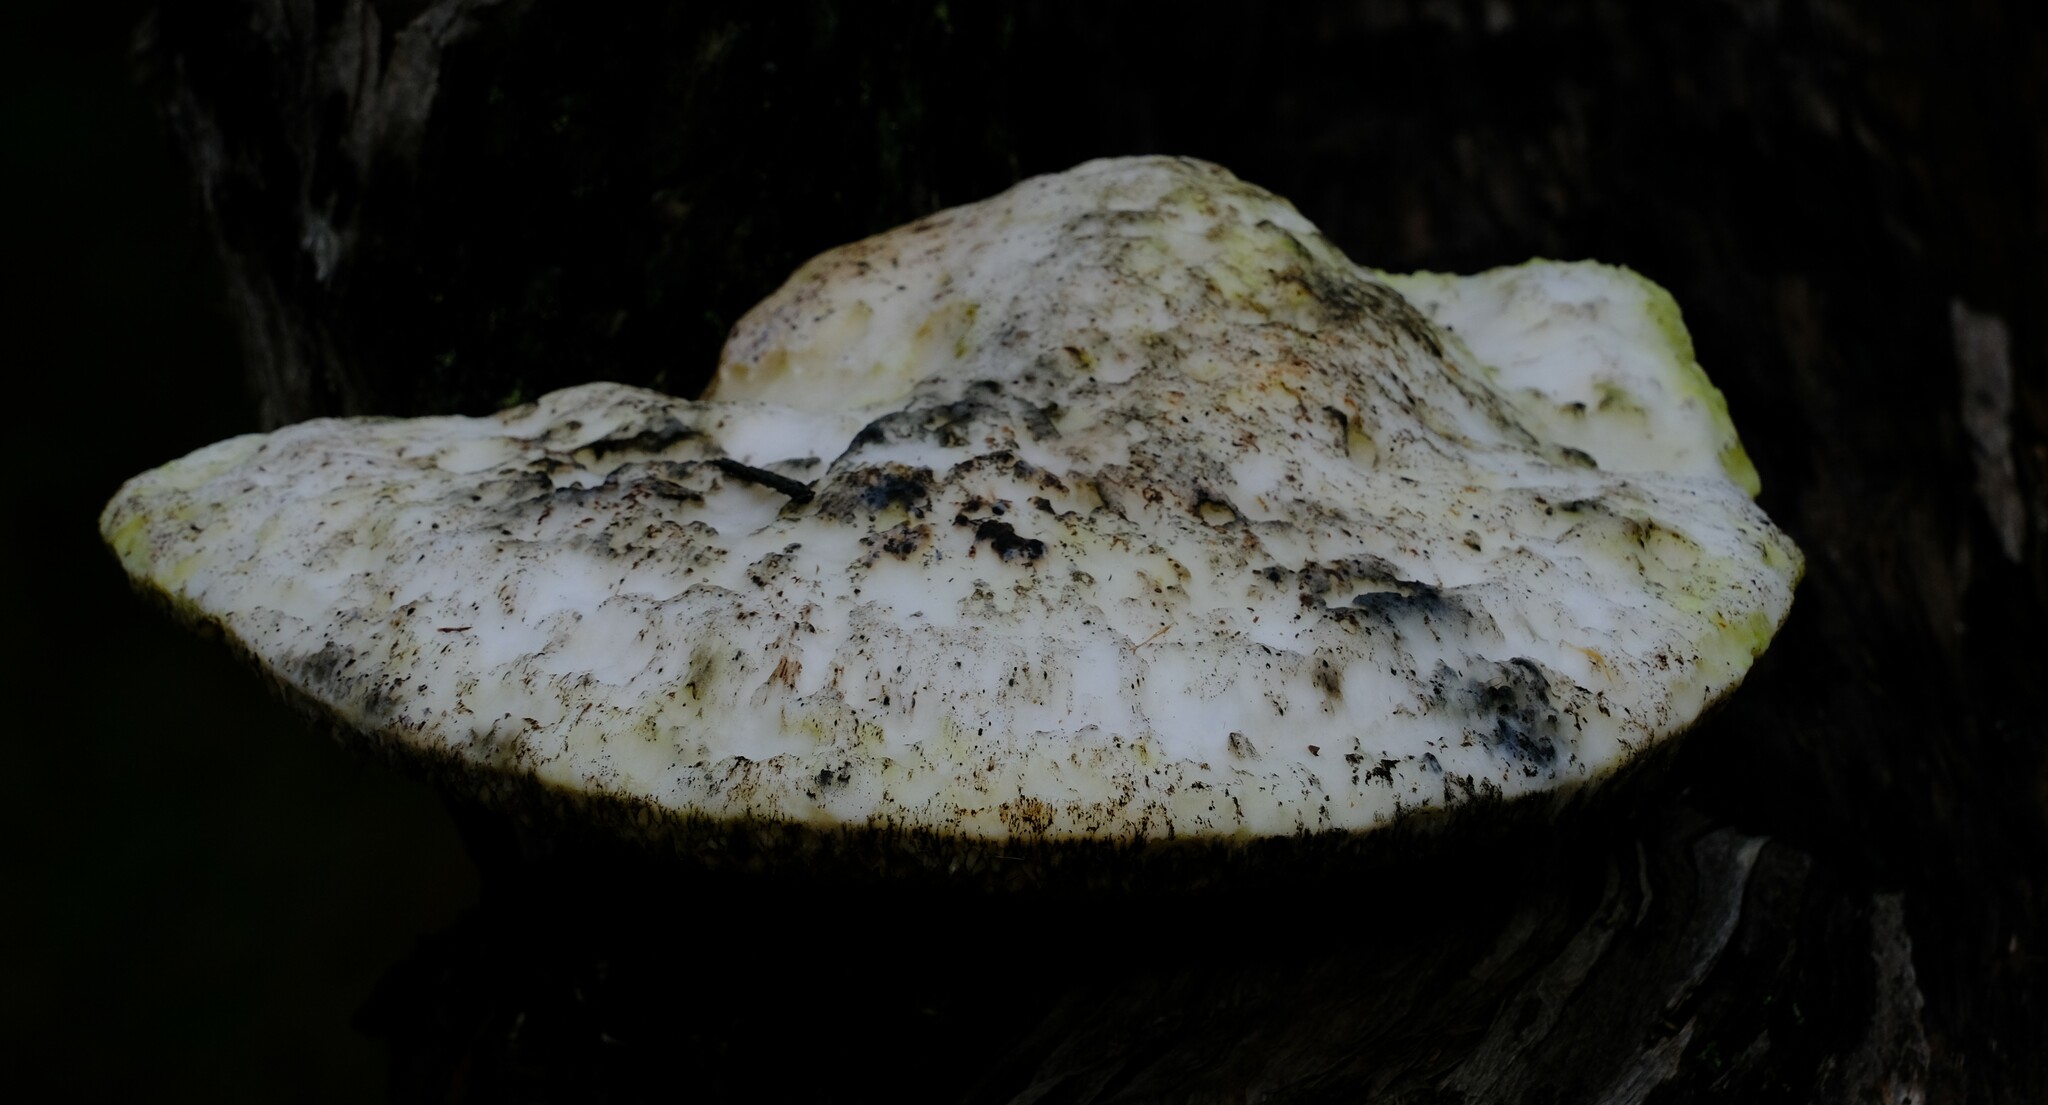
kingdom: Fungi
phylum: Basidiomycota
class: Agaricomycetes
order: Polyporales
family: Laetiporaceae
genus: Laetiporus
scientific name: Laetiporus portentosus
